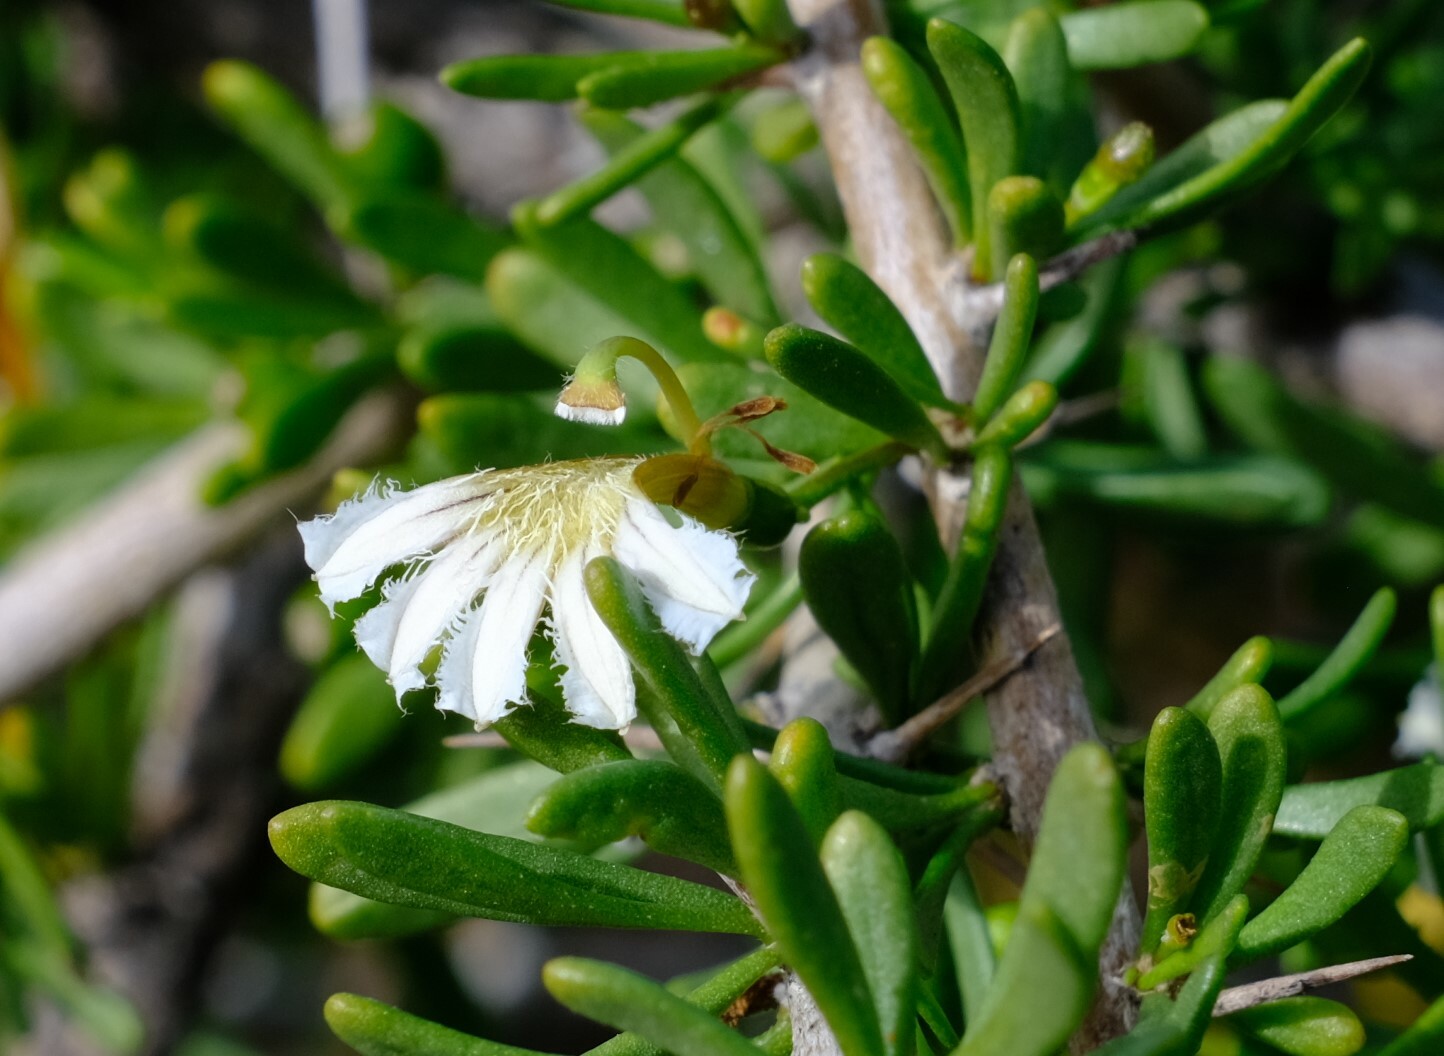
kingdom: Plantae
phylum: Tracheophyta
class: Magnoliopsida
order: Asterales
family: Goodeniaceae
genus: Scaevola
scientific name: Scaevola spinescens
